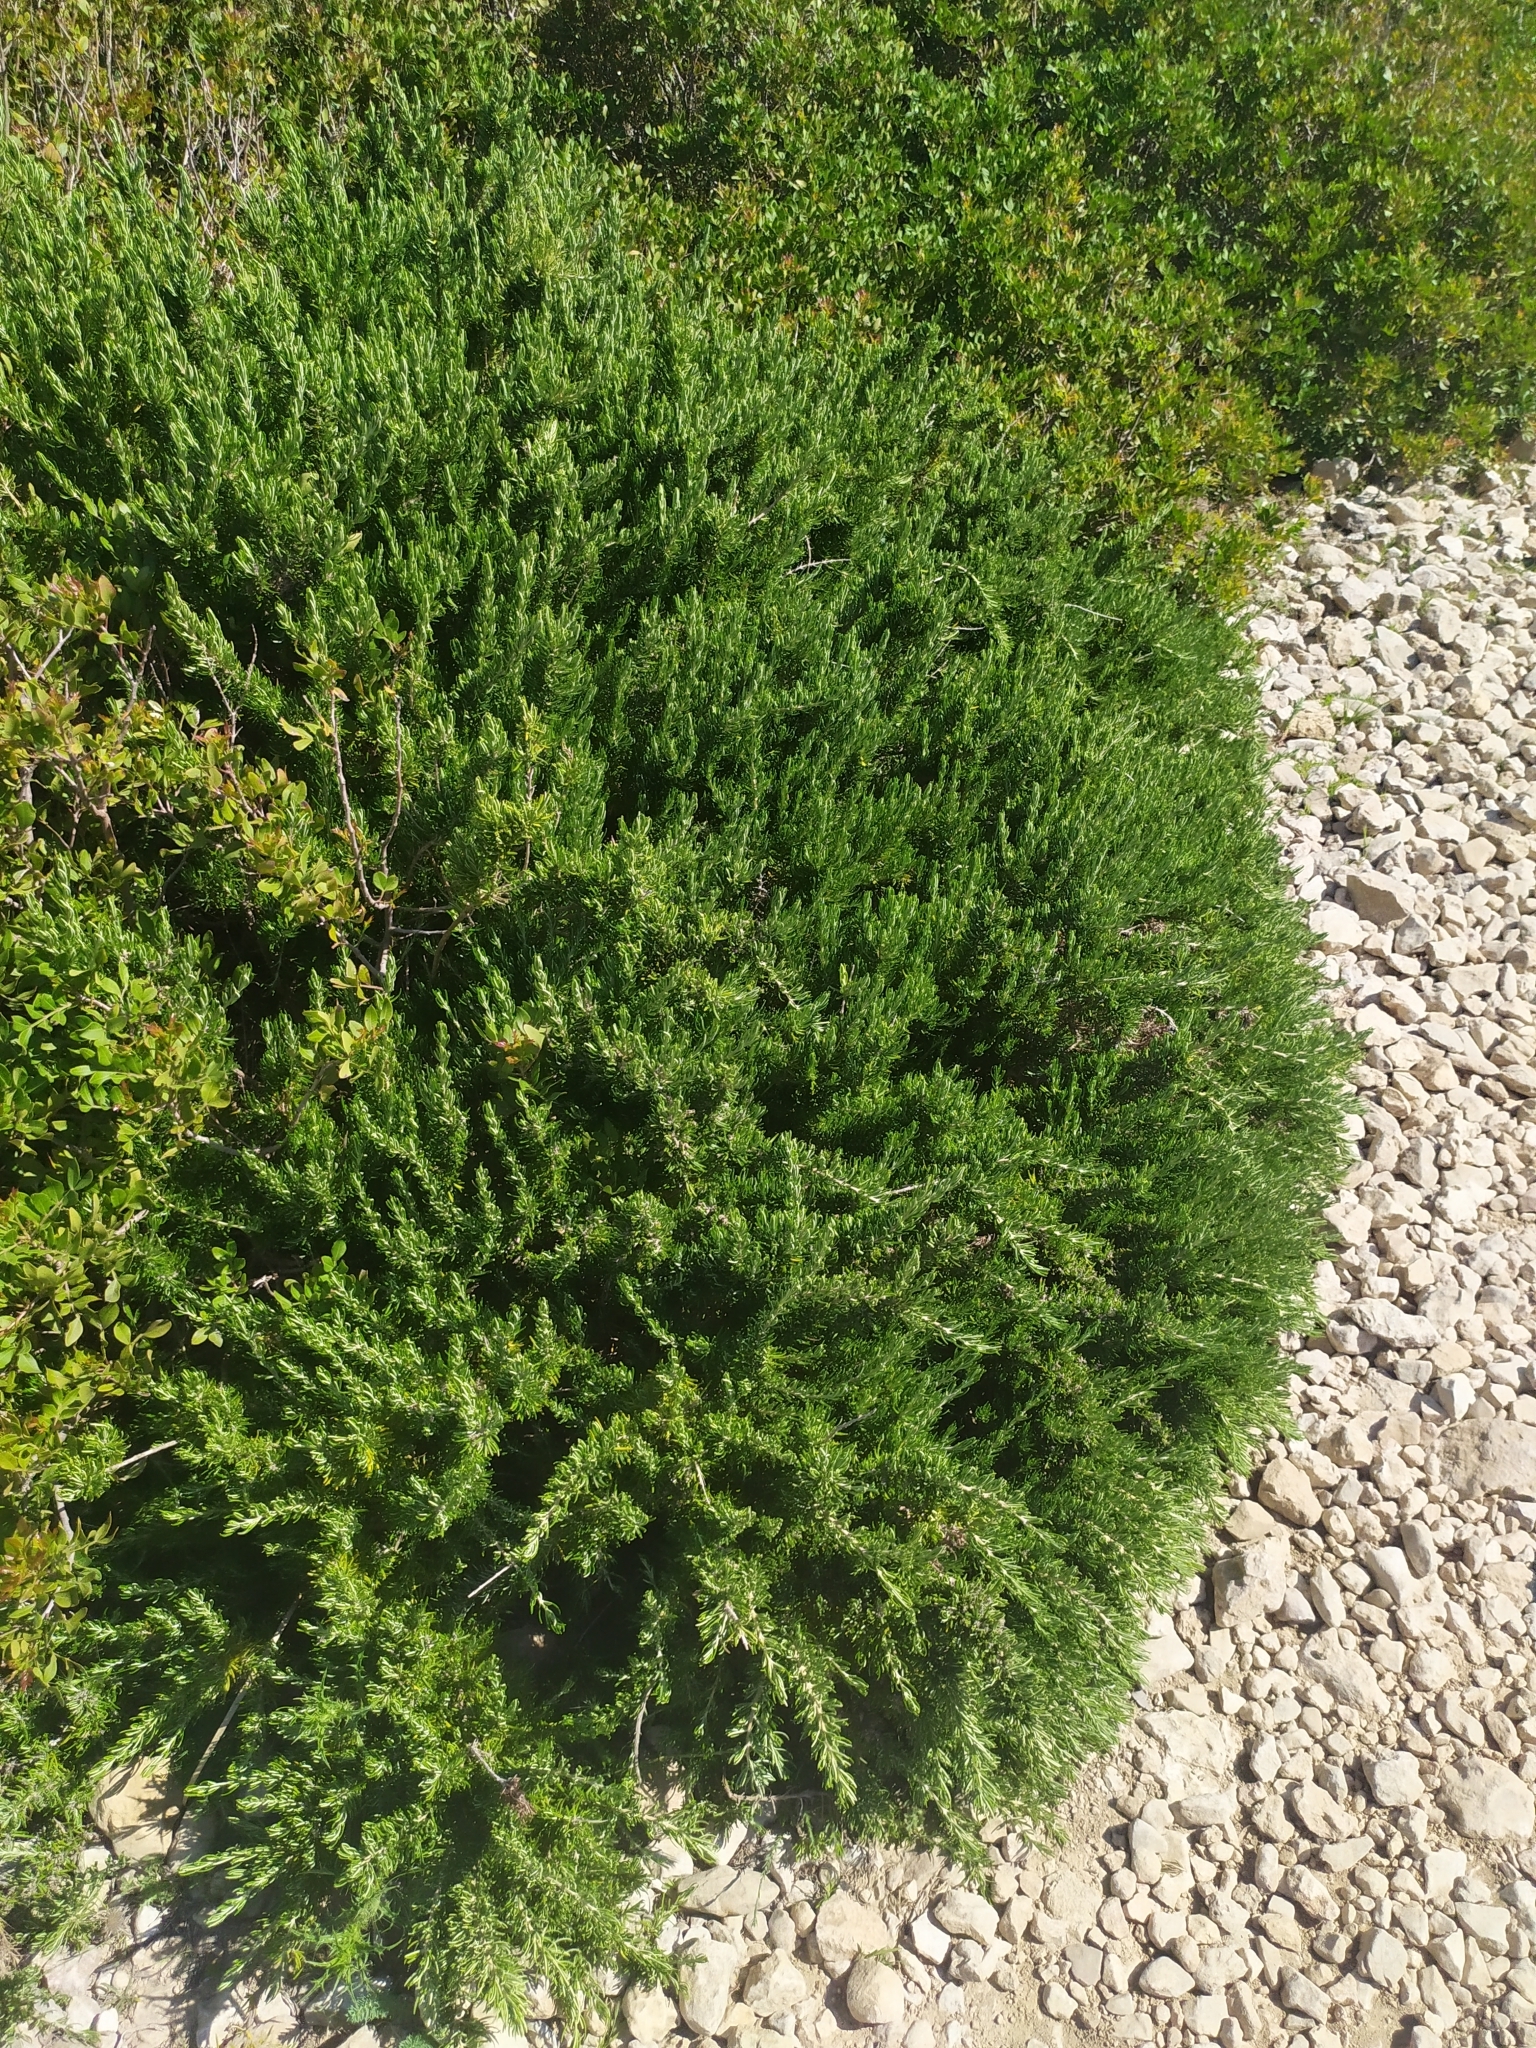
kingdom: Plantae
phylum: Tracheophyta
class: Magnoliopsida
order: Lamiales
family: Lamiaceae
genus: Salvia
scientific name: Salvia rosmarinus
